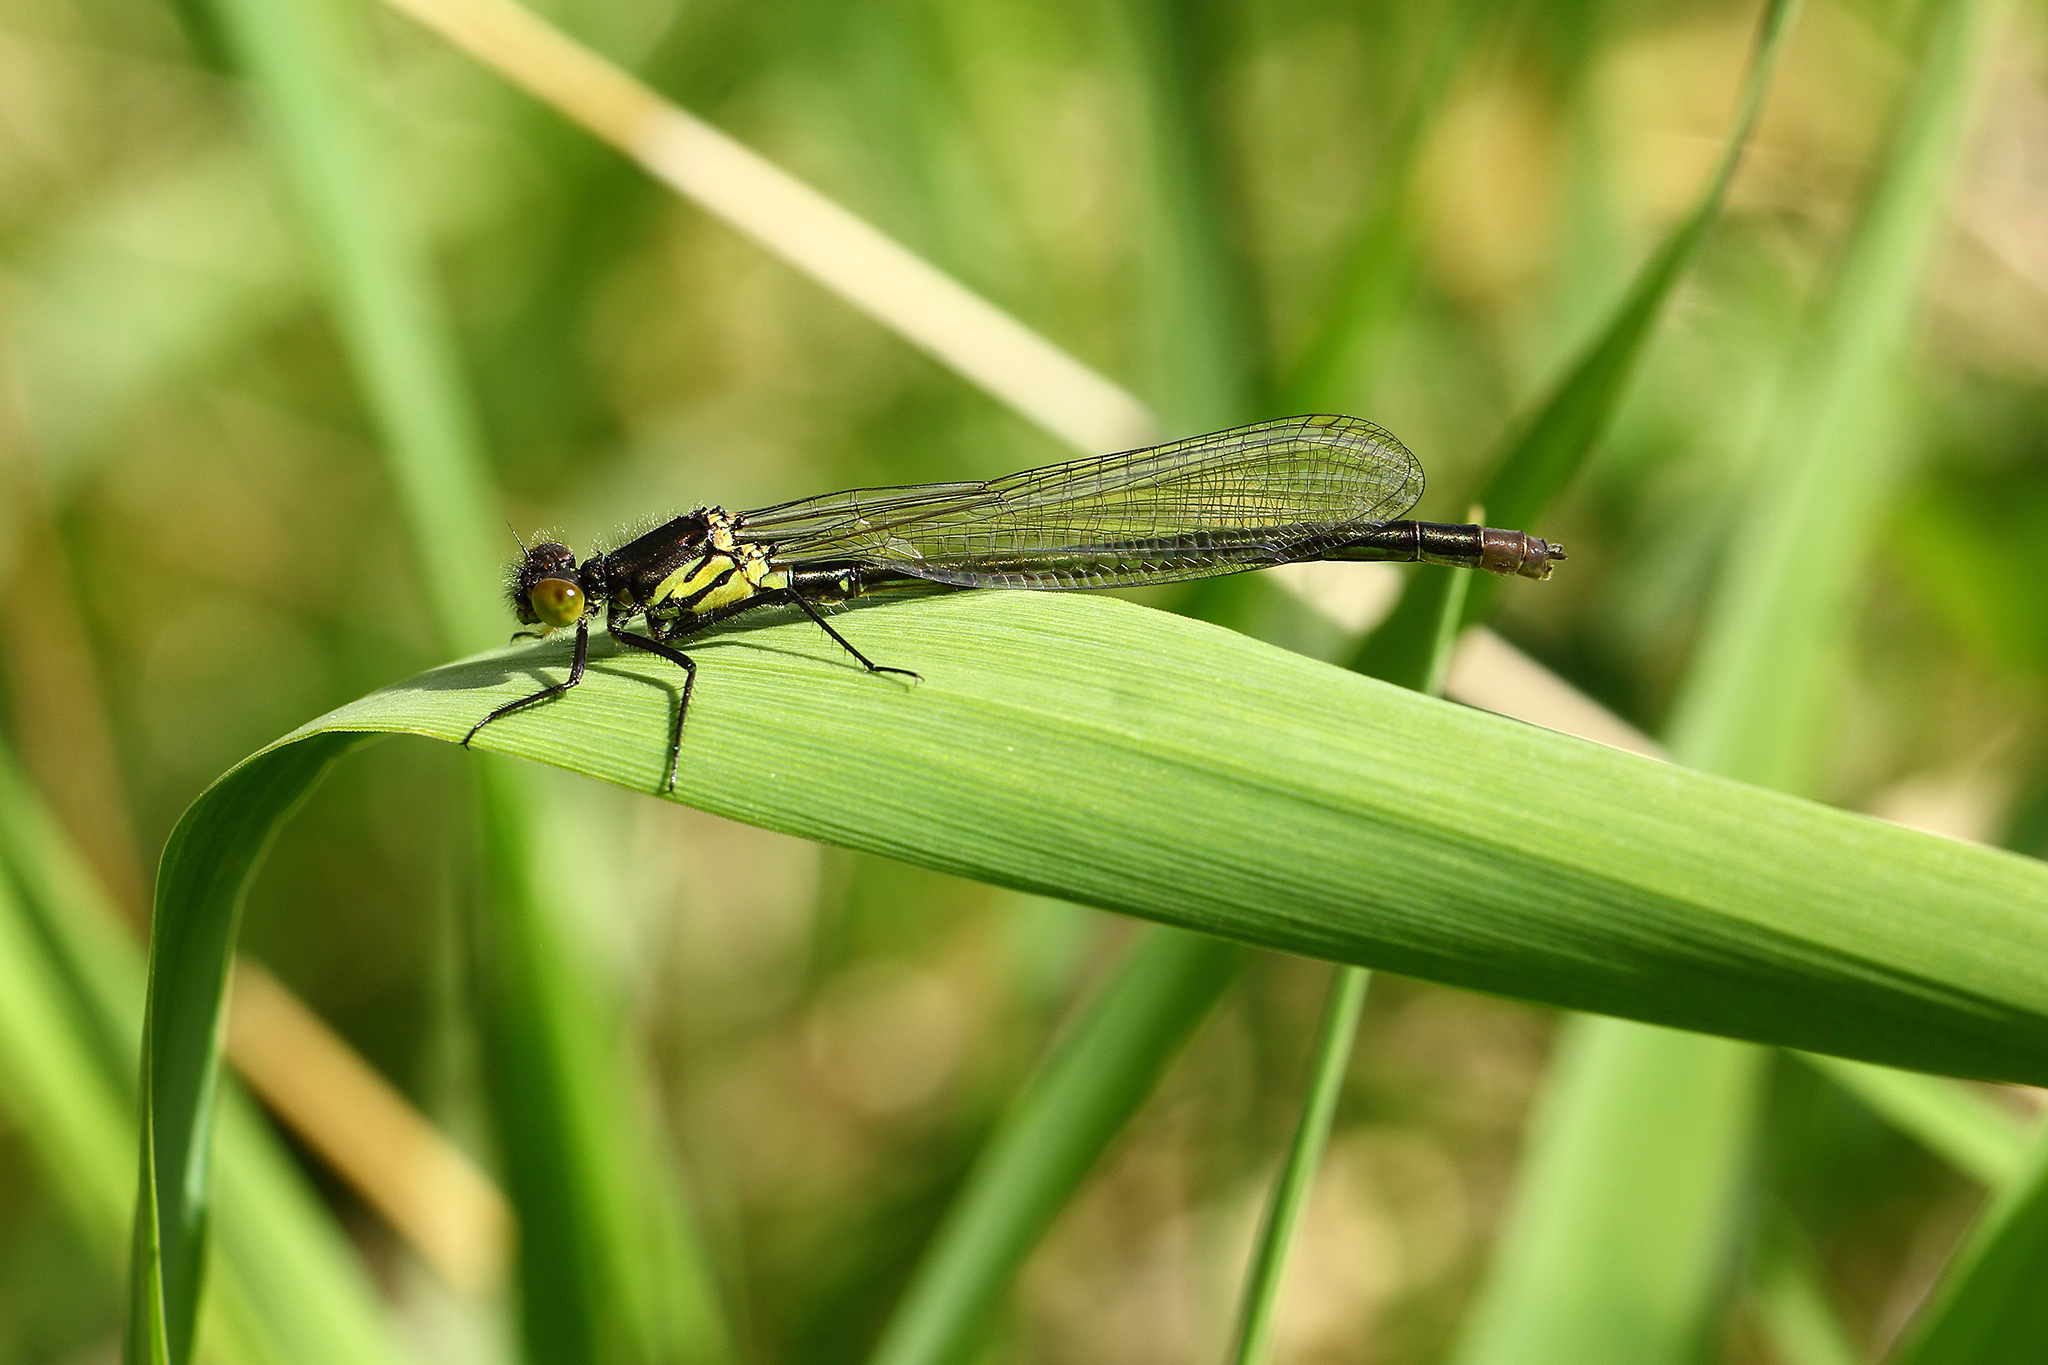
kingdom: Animalia
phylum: Arthropoda
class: Insecta
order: Odonata
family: Coenagrionidae
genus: Erythromma
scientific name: Erythromma najas
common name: Red-eyed damselfly
